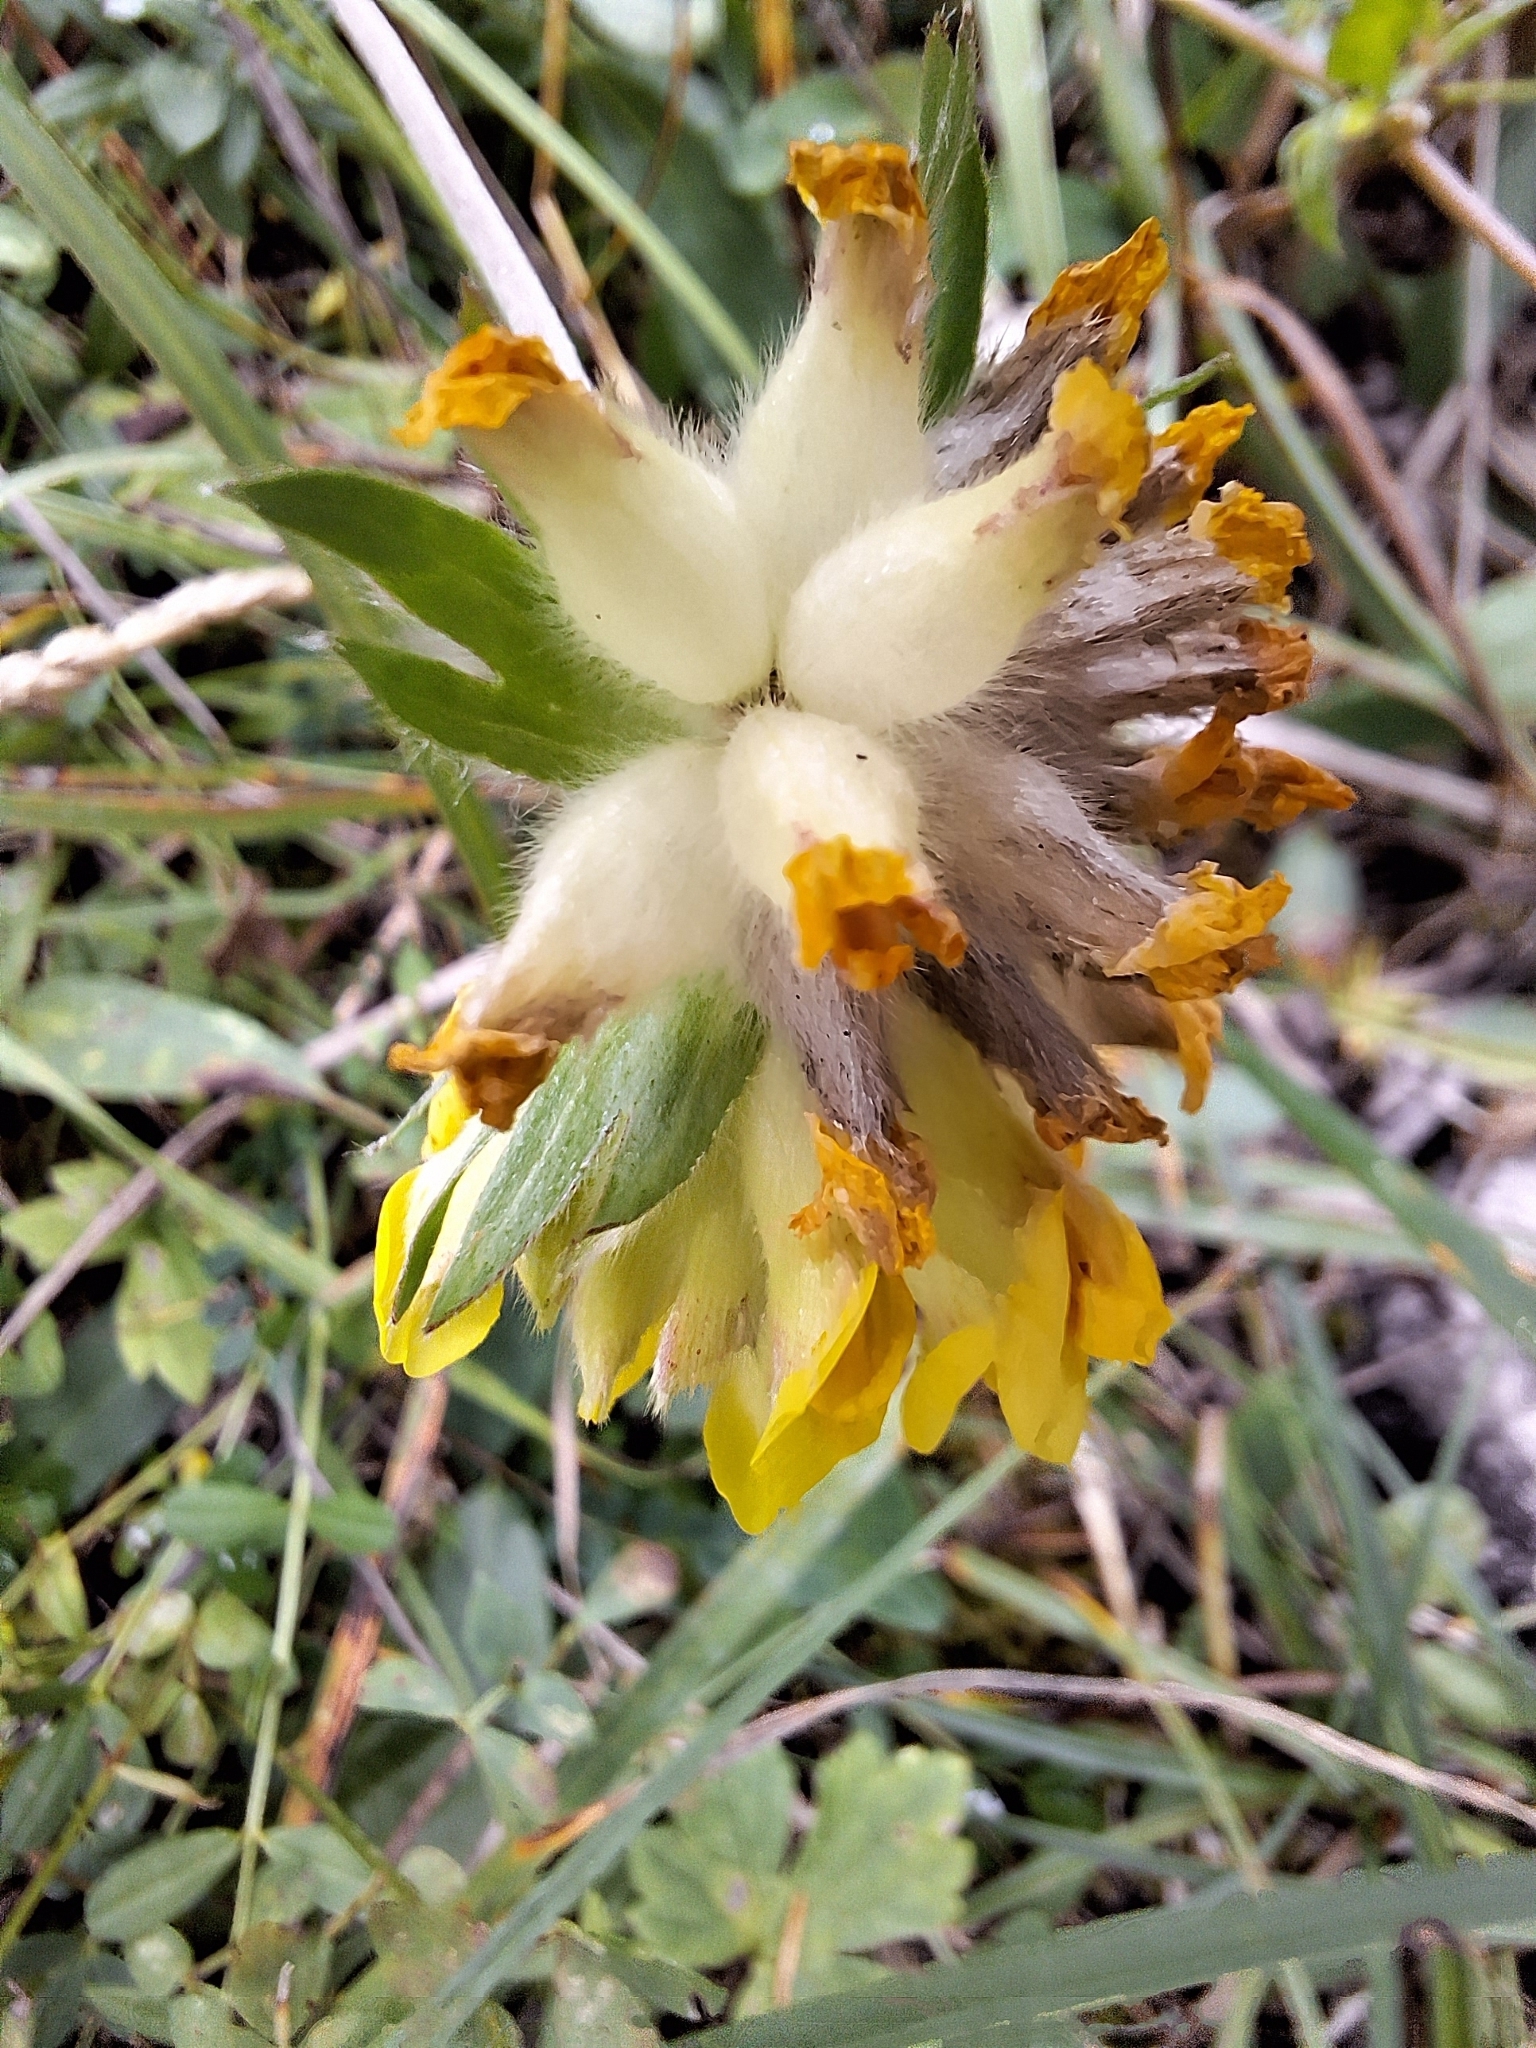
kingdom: Plantae
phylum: Tracheophyta
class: Magnoliopsida
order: Fabales
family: Fabaceae
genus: Anthyllis
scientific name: Anthyllis vulneraria
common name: Kidney vetch
